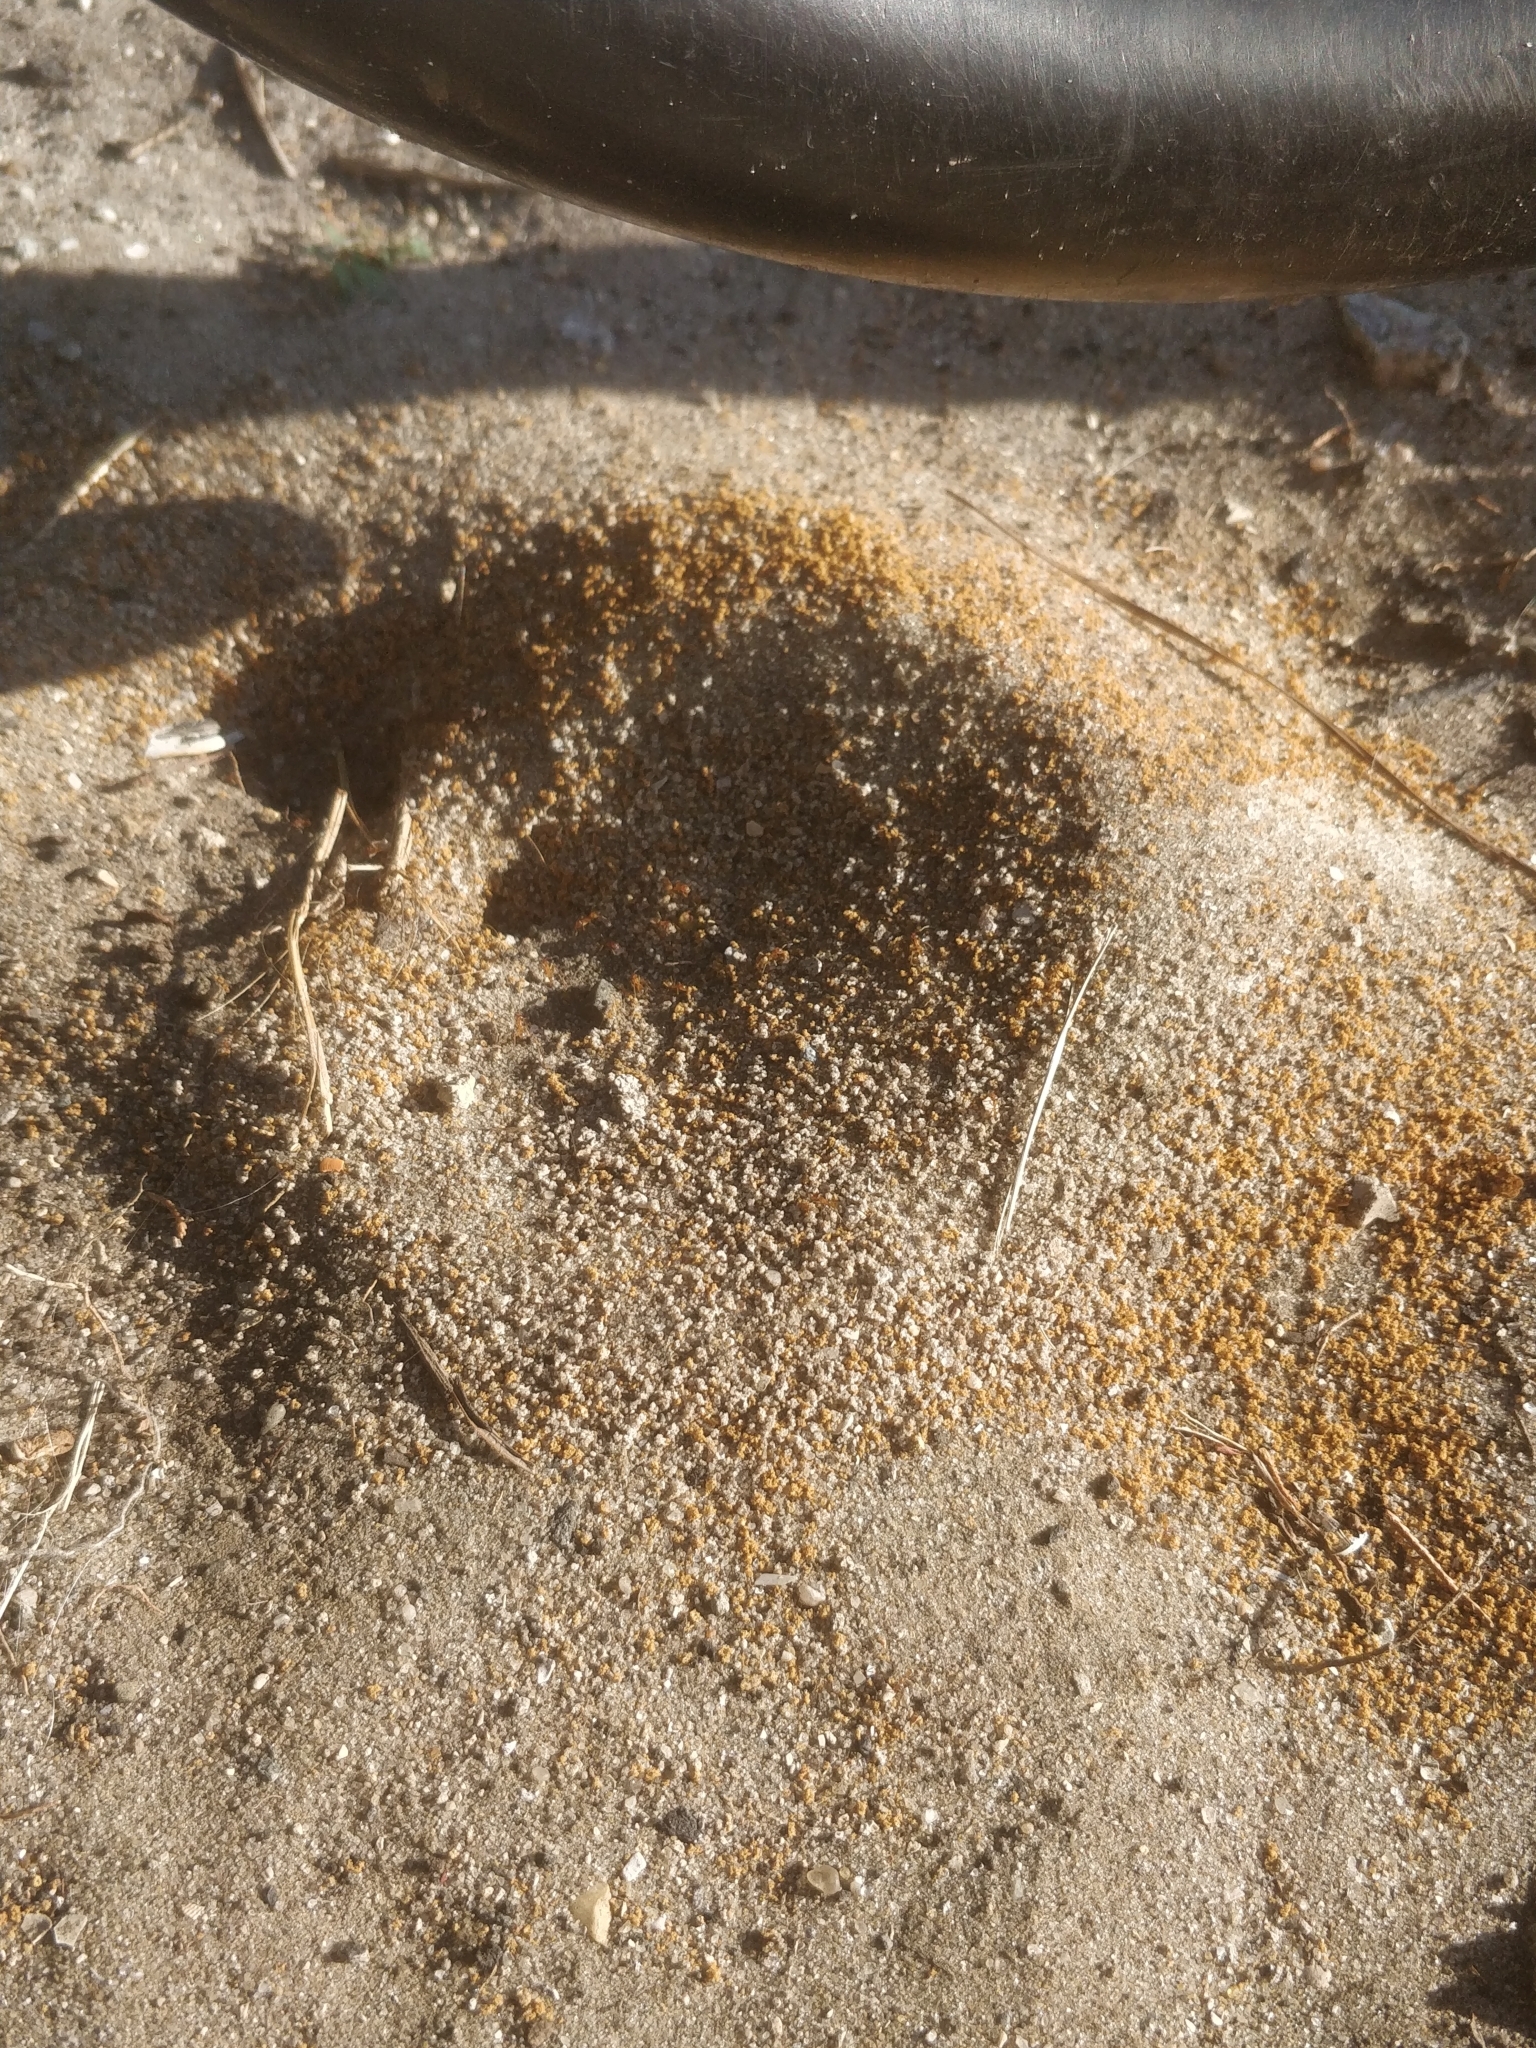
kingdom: Animalia
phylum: Arthropoda
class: Insecta
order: Hymenoptera
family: Formicidae
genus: Dorymyrmex
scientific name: Dorymyrmex bureni
